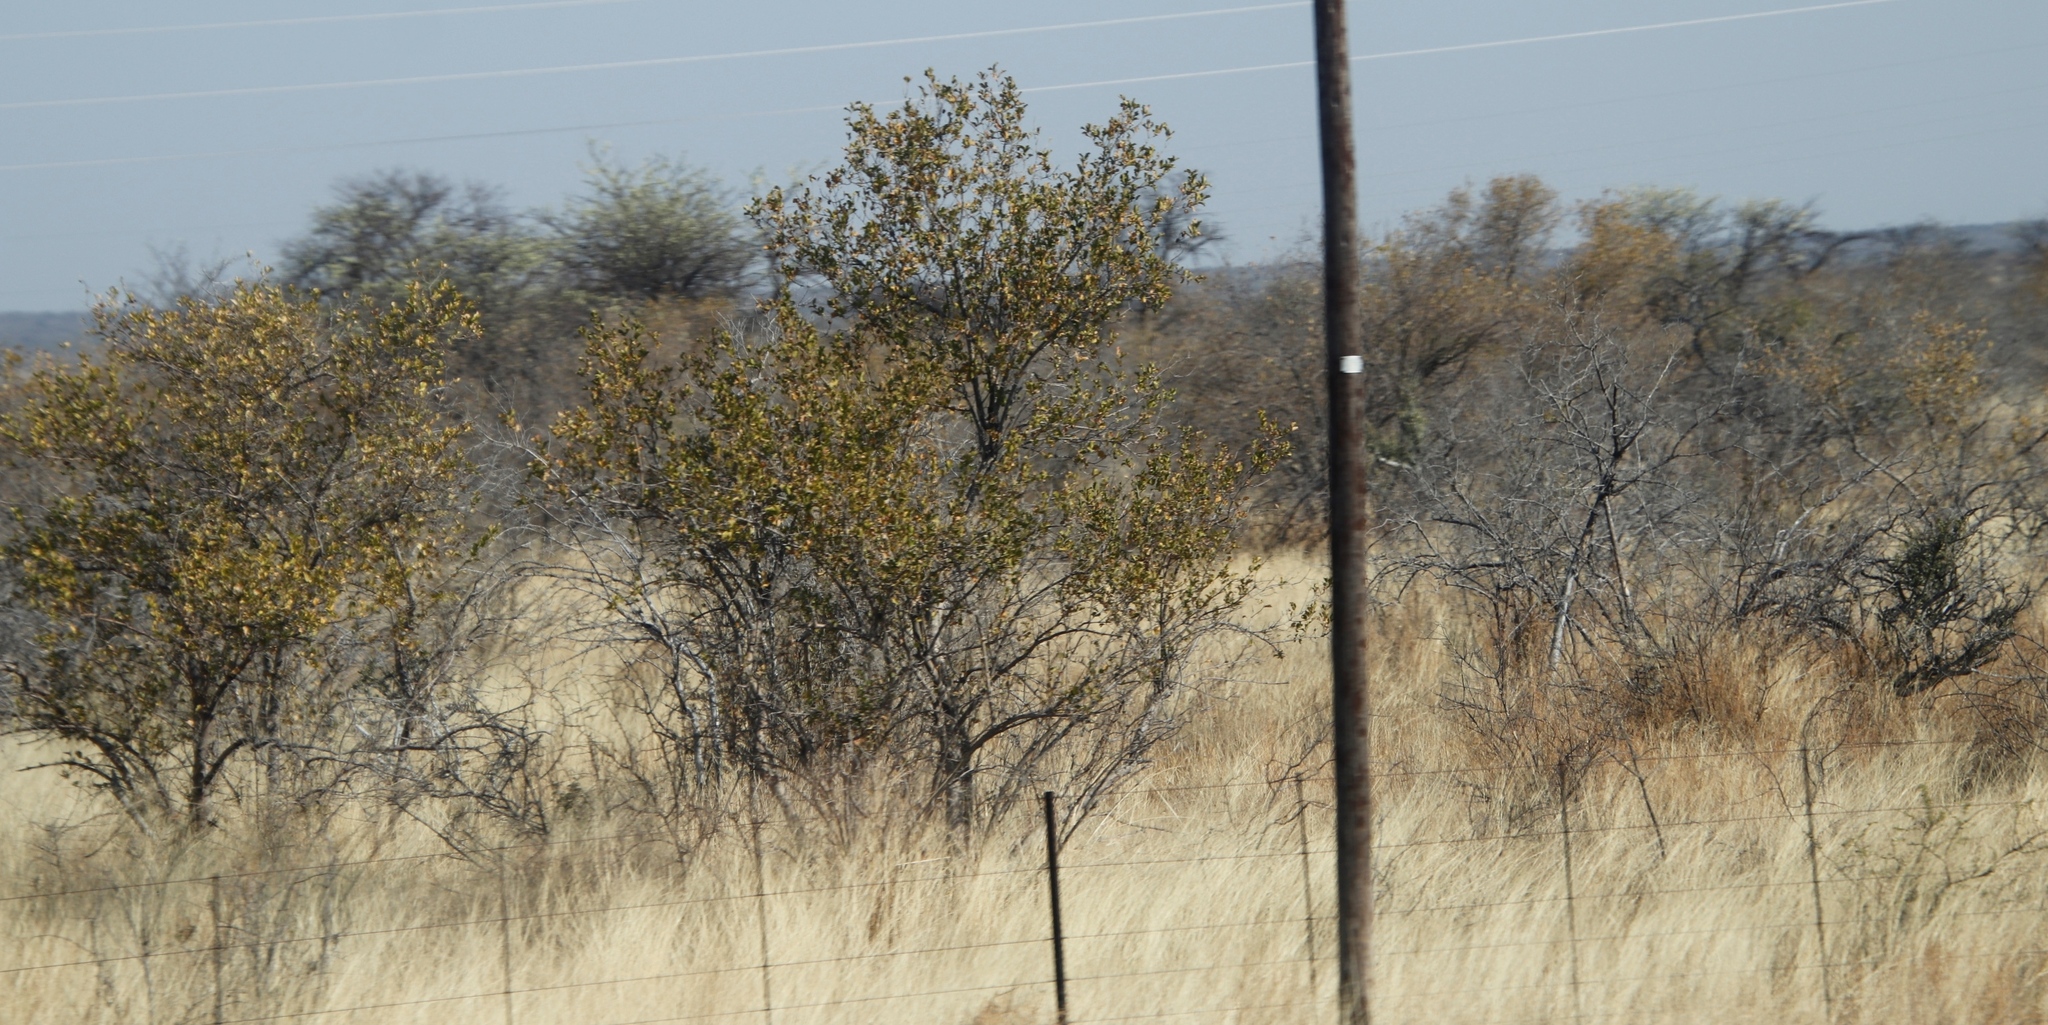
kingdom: Plantae
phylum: Tracheophyta
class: Magnoliopsida
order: Myrtales
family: Combretaceae
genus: Combretum
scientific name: Combretum apiculatum
